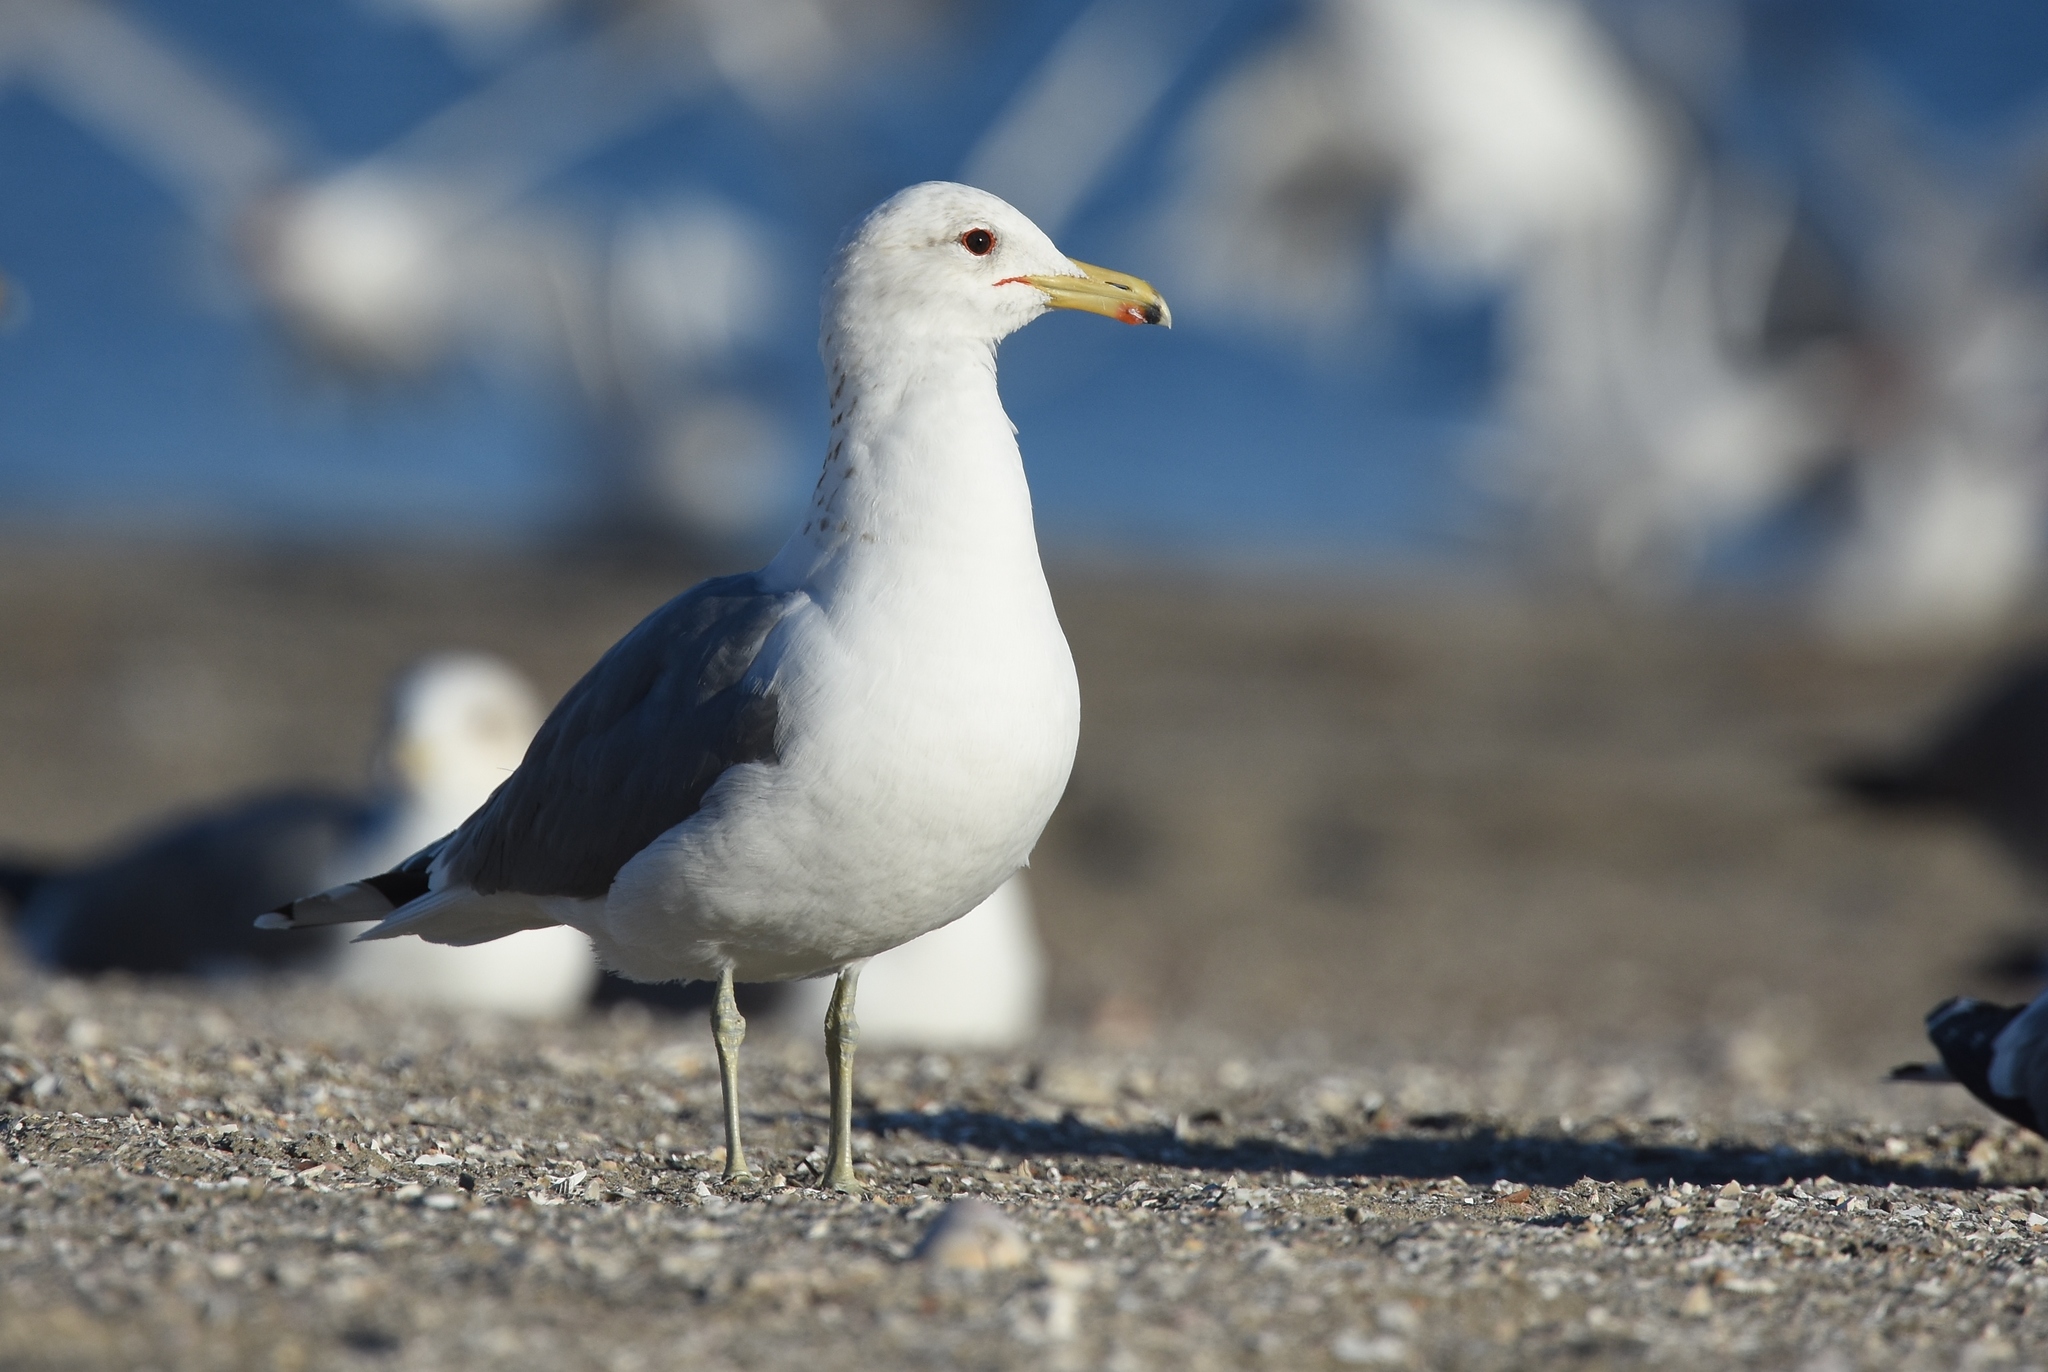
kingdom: Animalia
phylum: Chordata
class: Aves
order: Charadriiformes
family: Laridae
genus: Larus
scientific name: Larus californicus
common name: California gull
